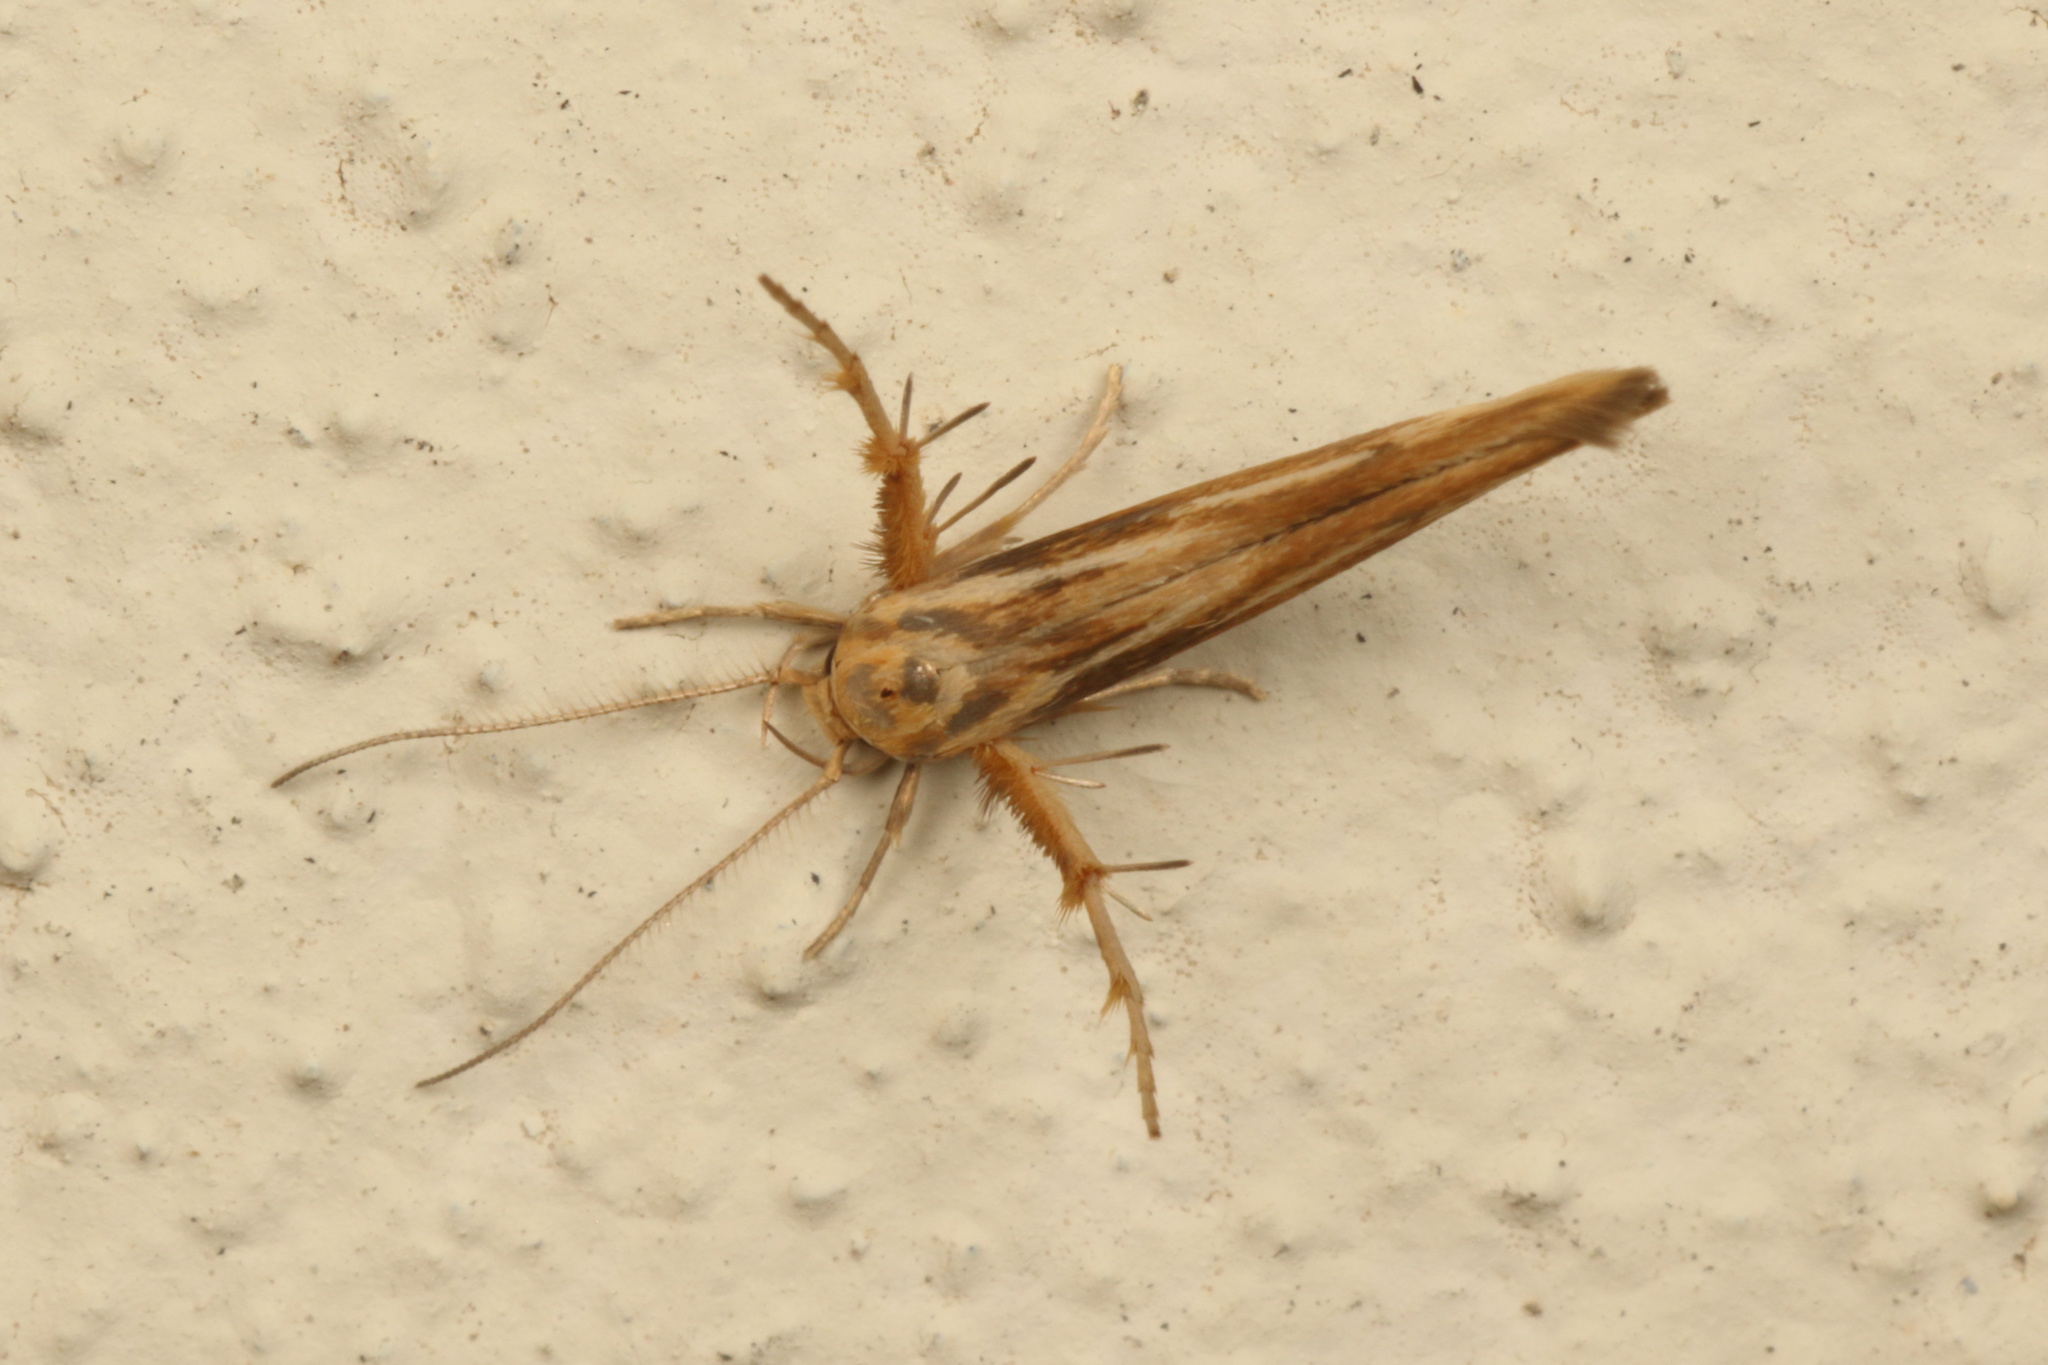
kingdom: Animalia
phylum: Arthropoda
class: Insecta
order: Lepidoptera
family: Stathmopodidae
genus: Stathmopoda
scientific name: Stathmopoda aposema
